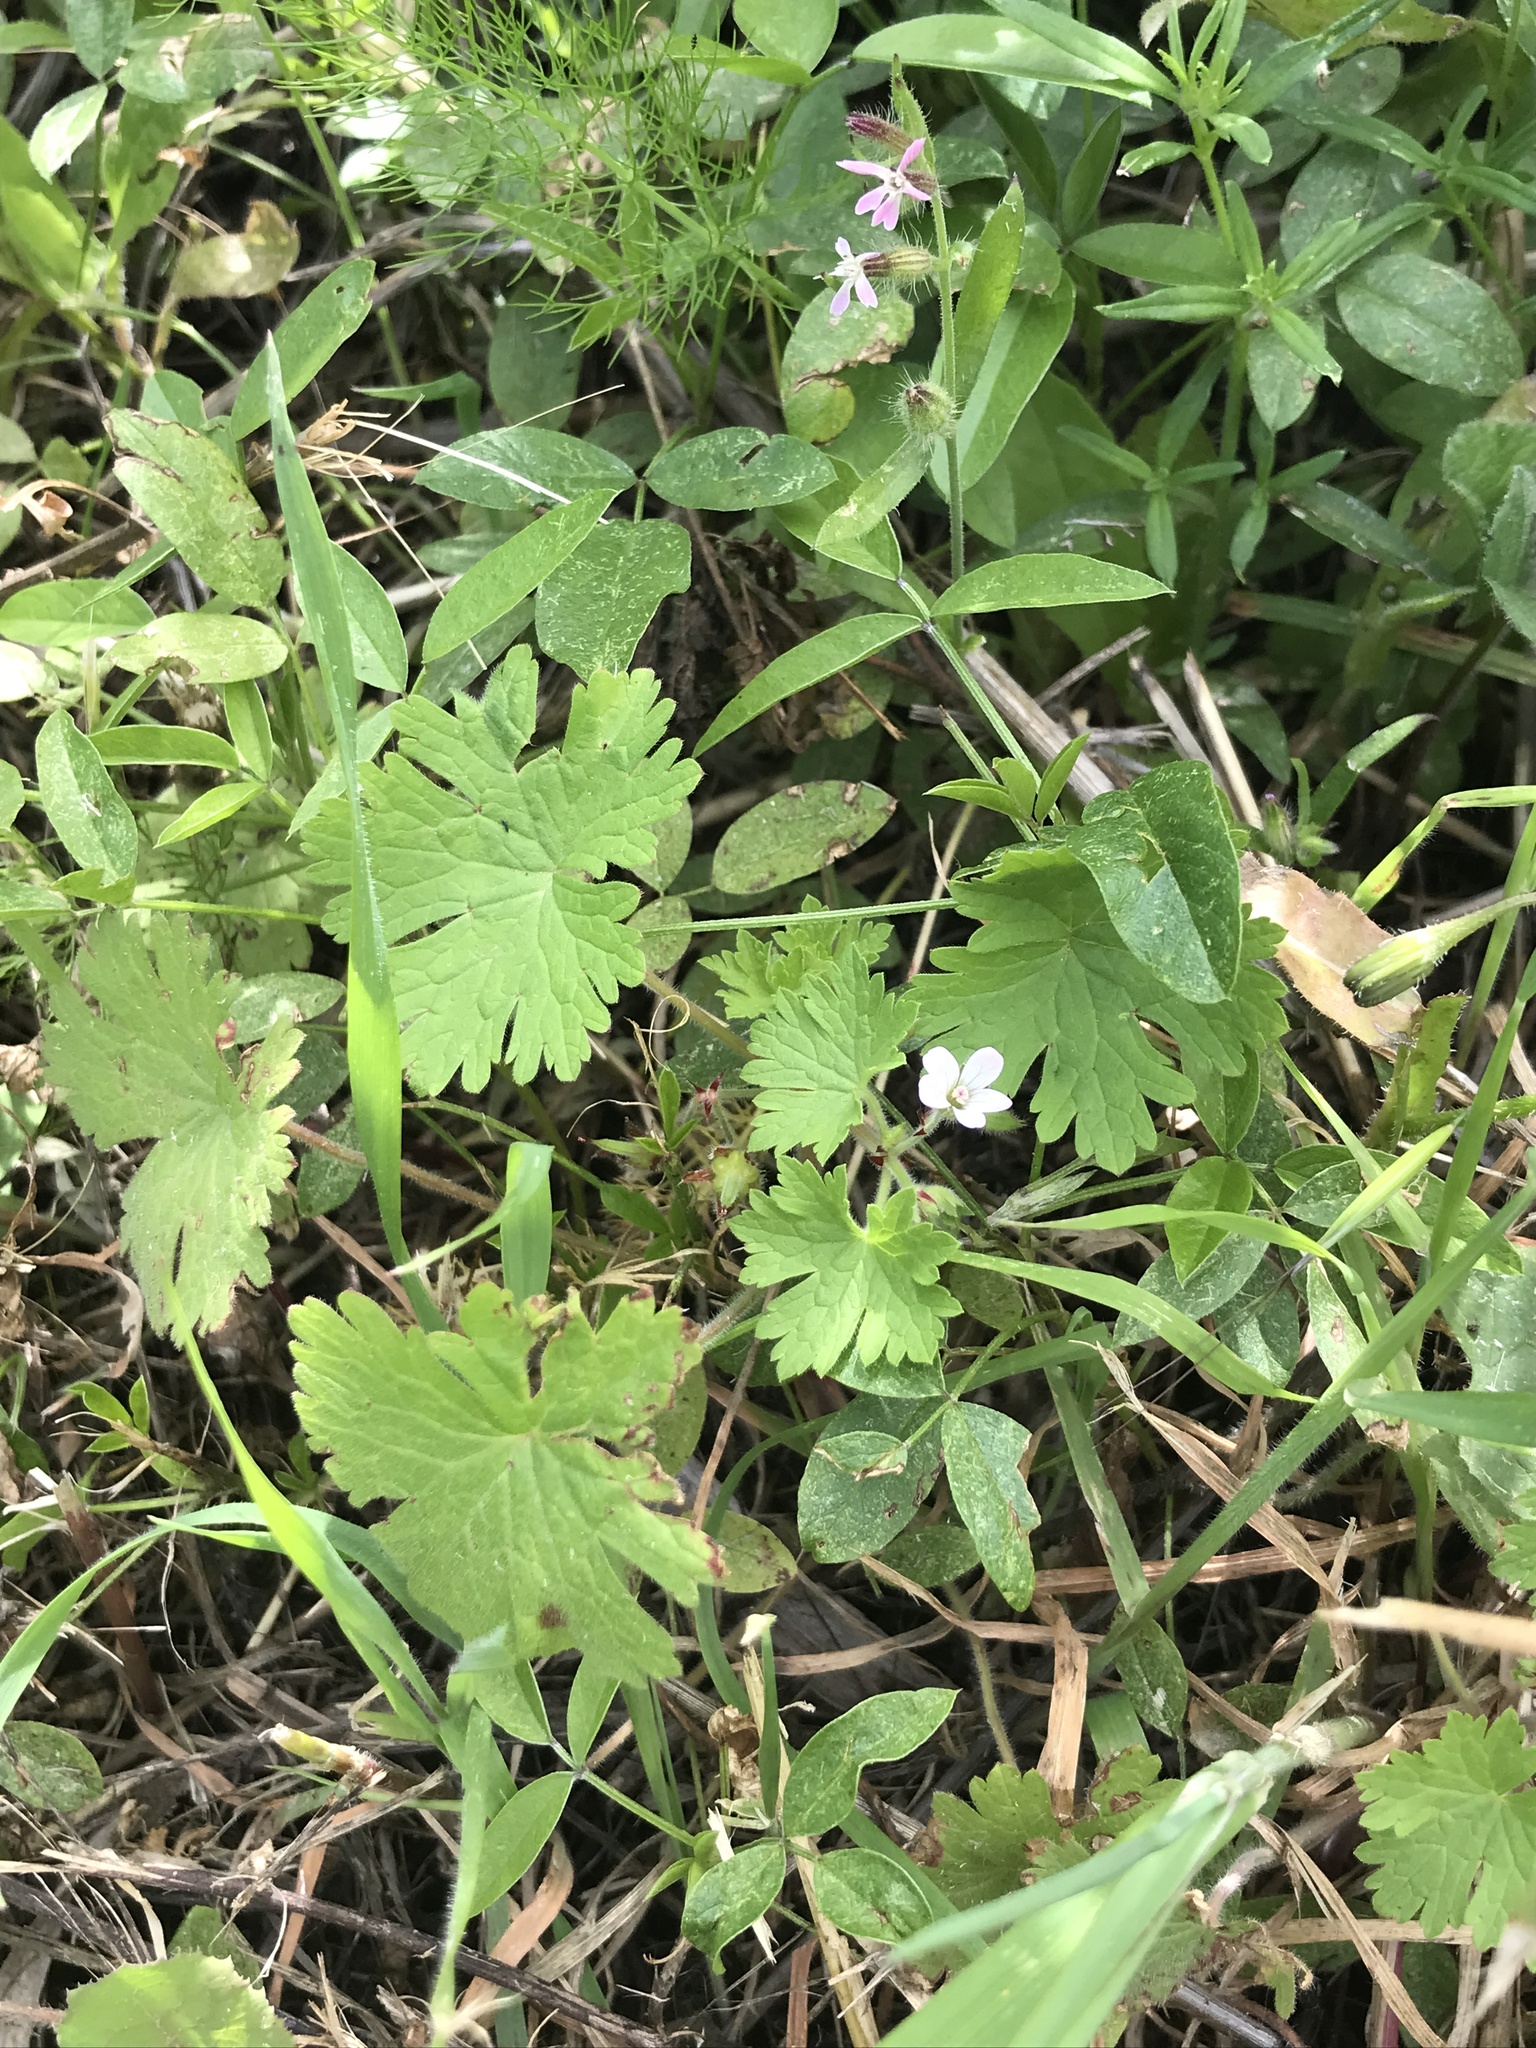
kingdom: Plantae
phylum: Tracheophyta
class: Magnoliopsida
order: Geraniales
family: Geraniaceae
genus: Geranium
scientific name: Geranium rotundifolium
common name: Round-leaved crane's-bill
